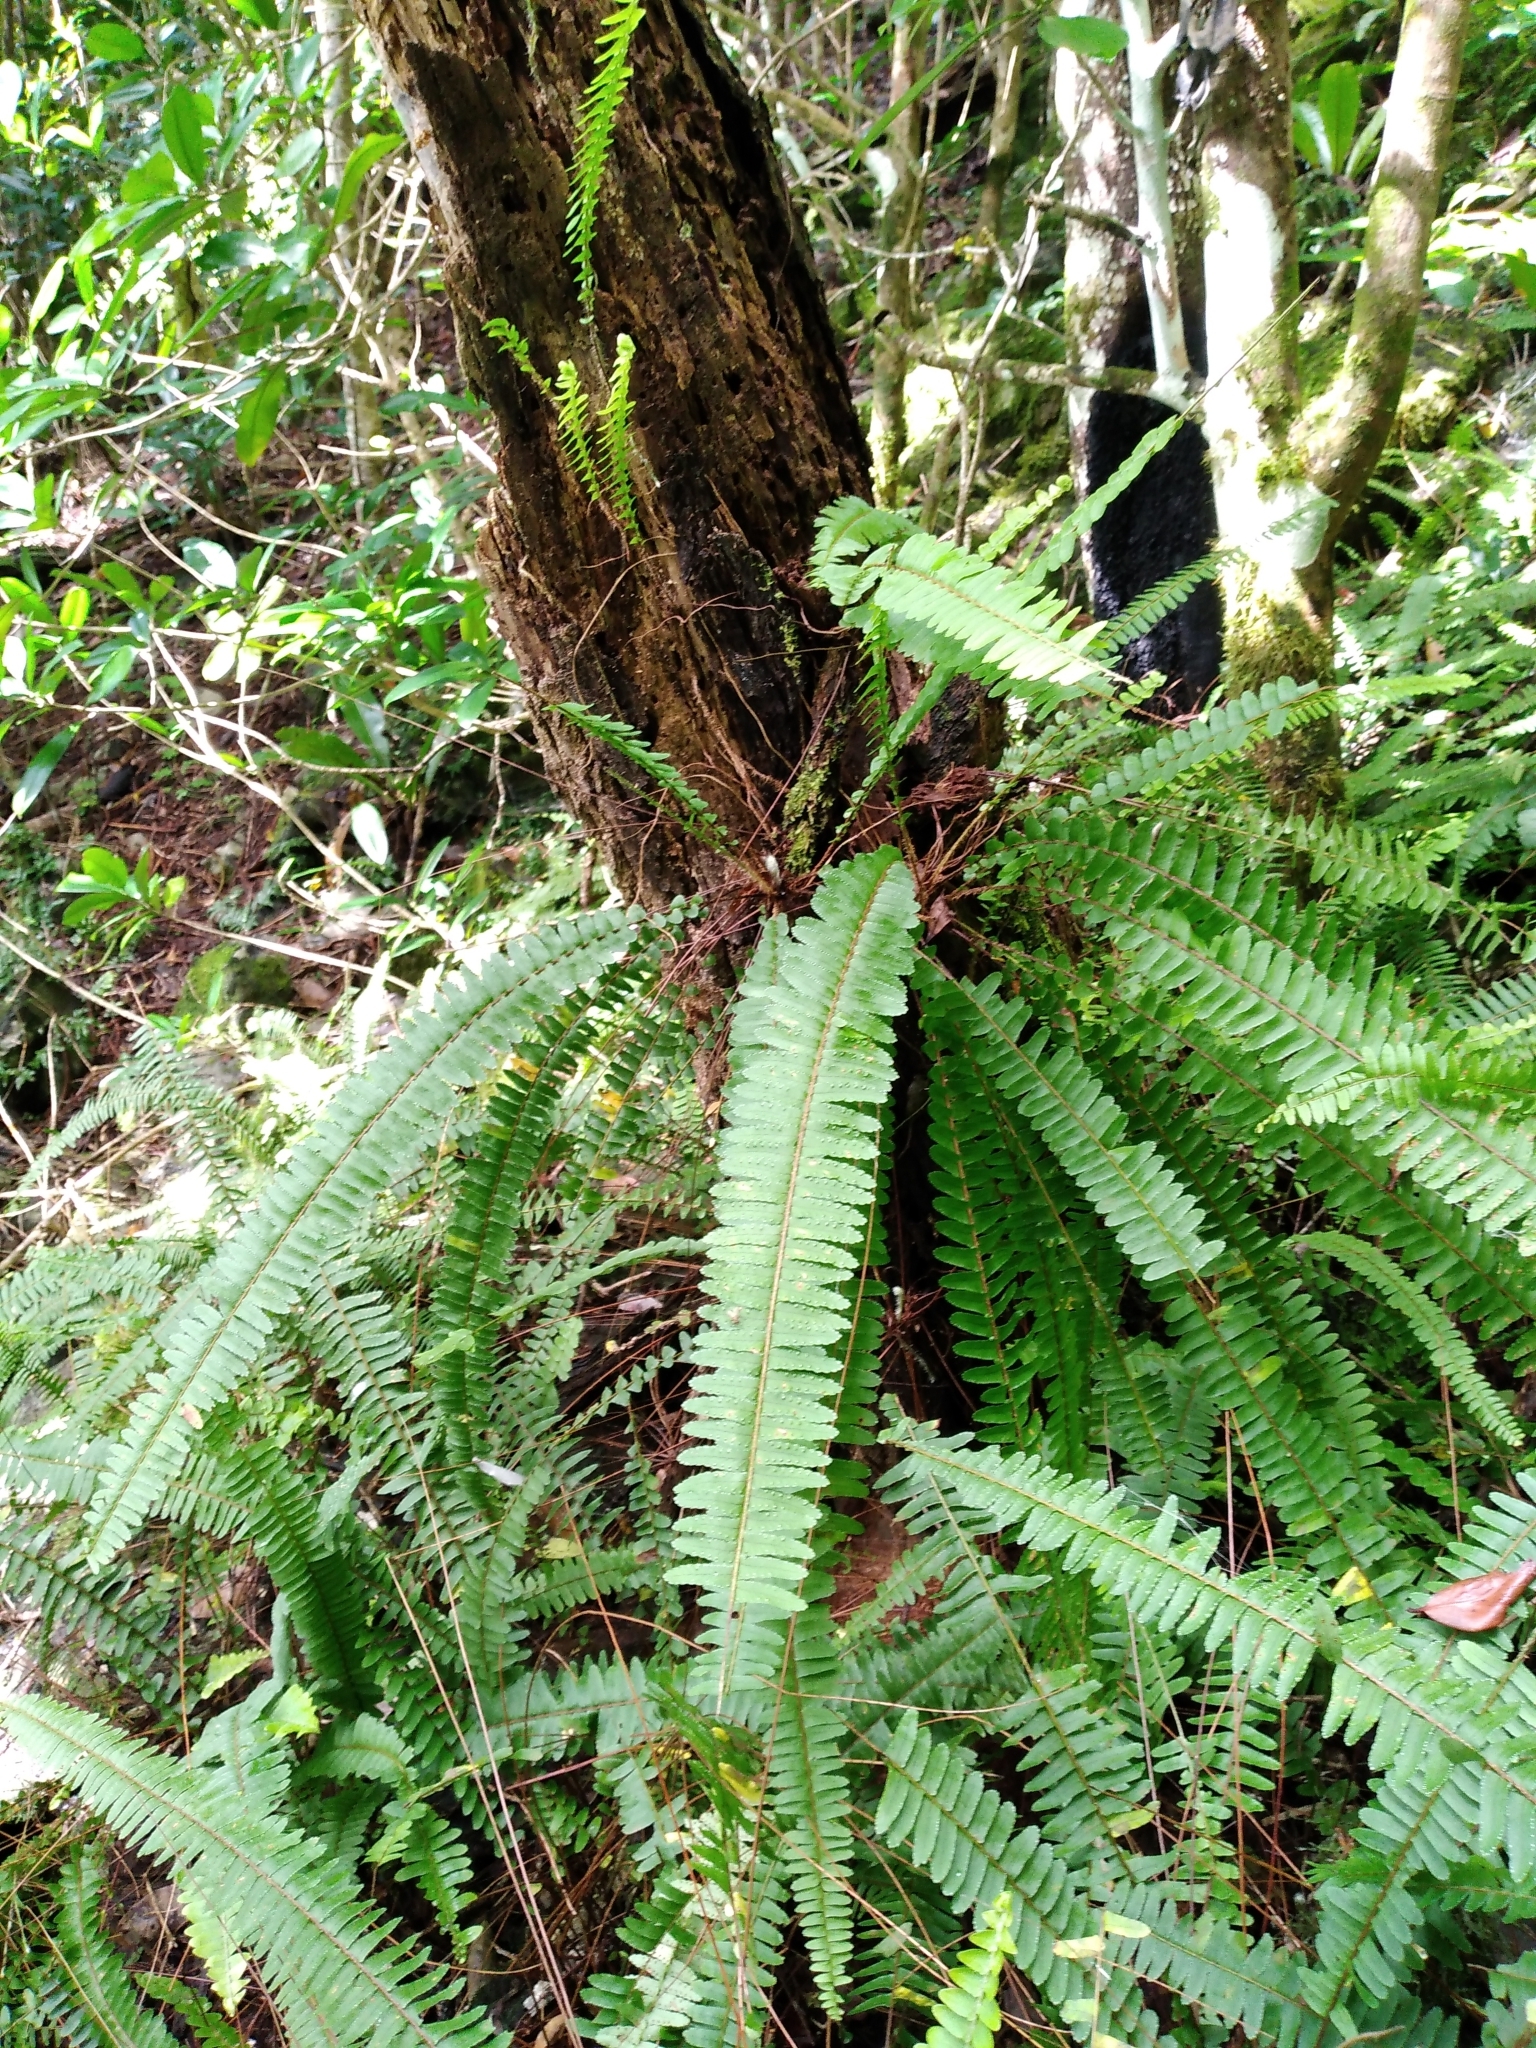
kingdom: Plantae
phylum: Tracheophyta
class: Polypodiopsida
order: Polypodiales
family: Nephrolepidaceae
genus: Nephrolepis
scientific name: Nephrolepis flexuosa
